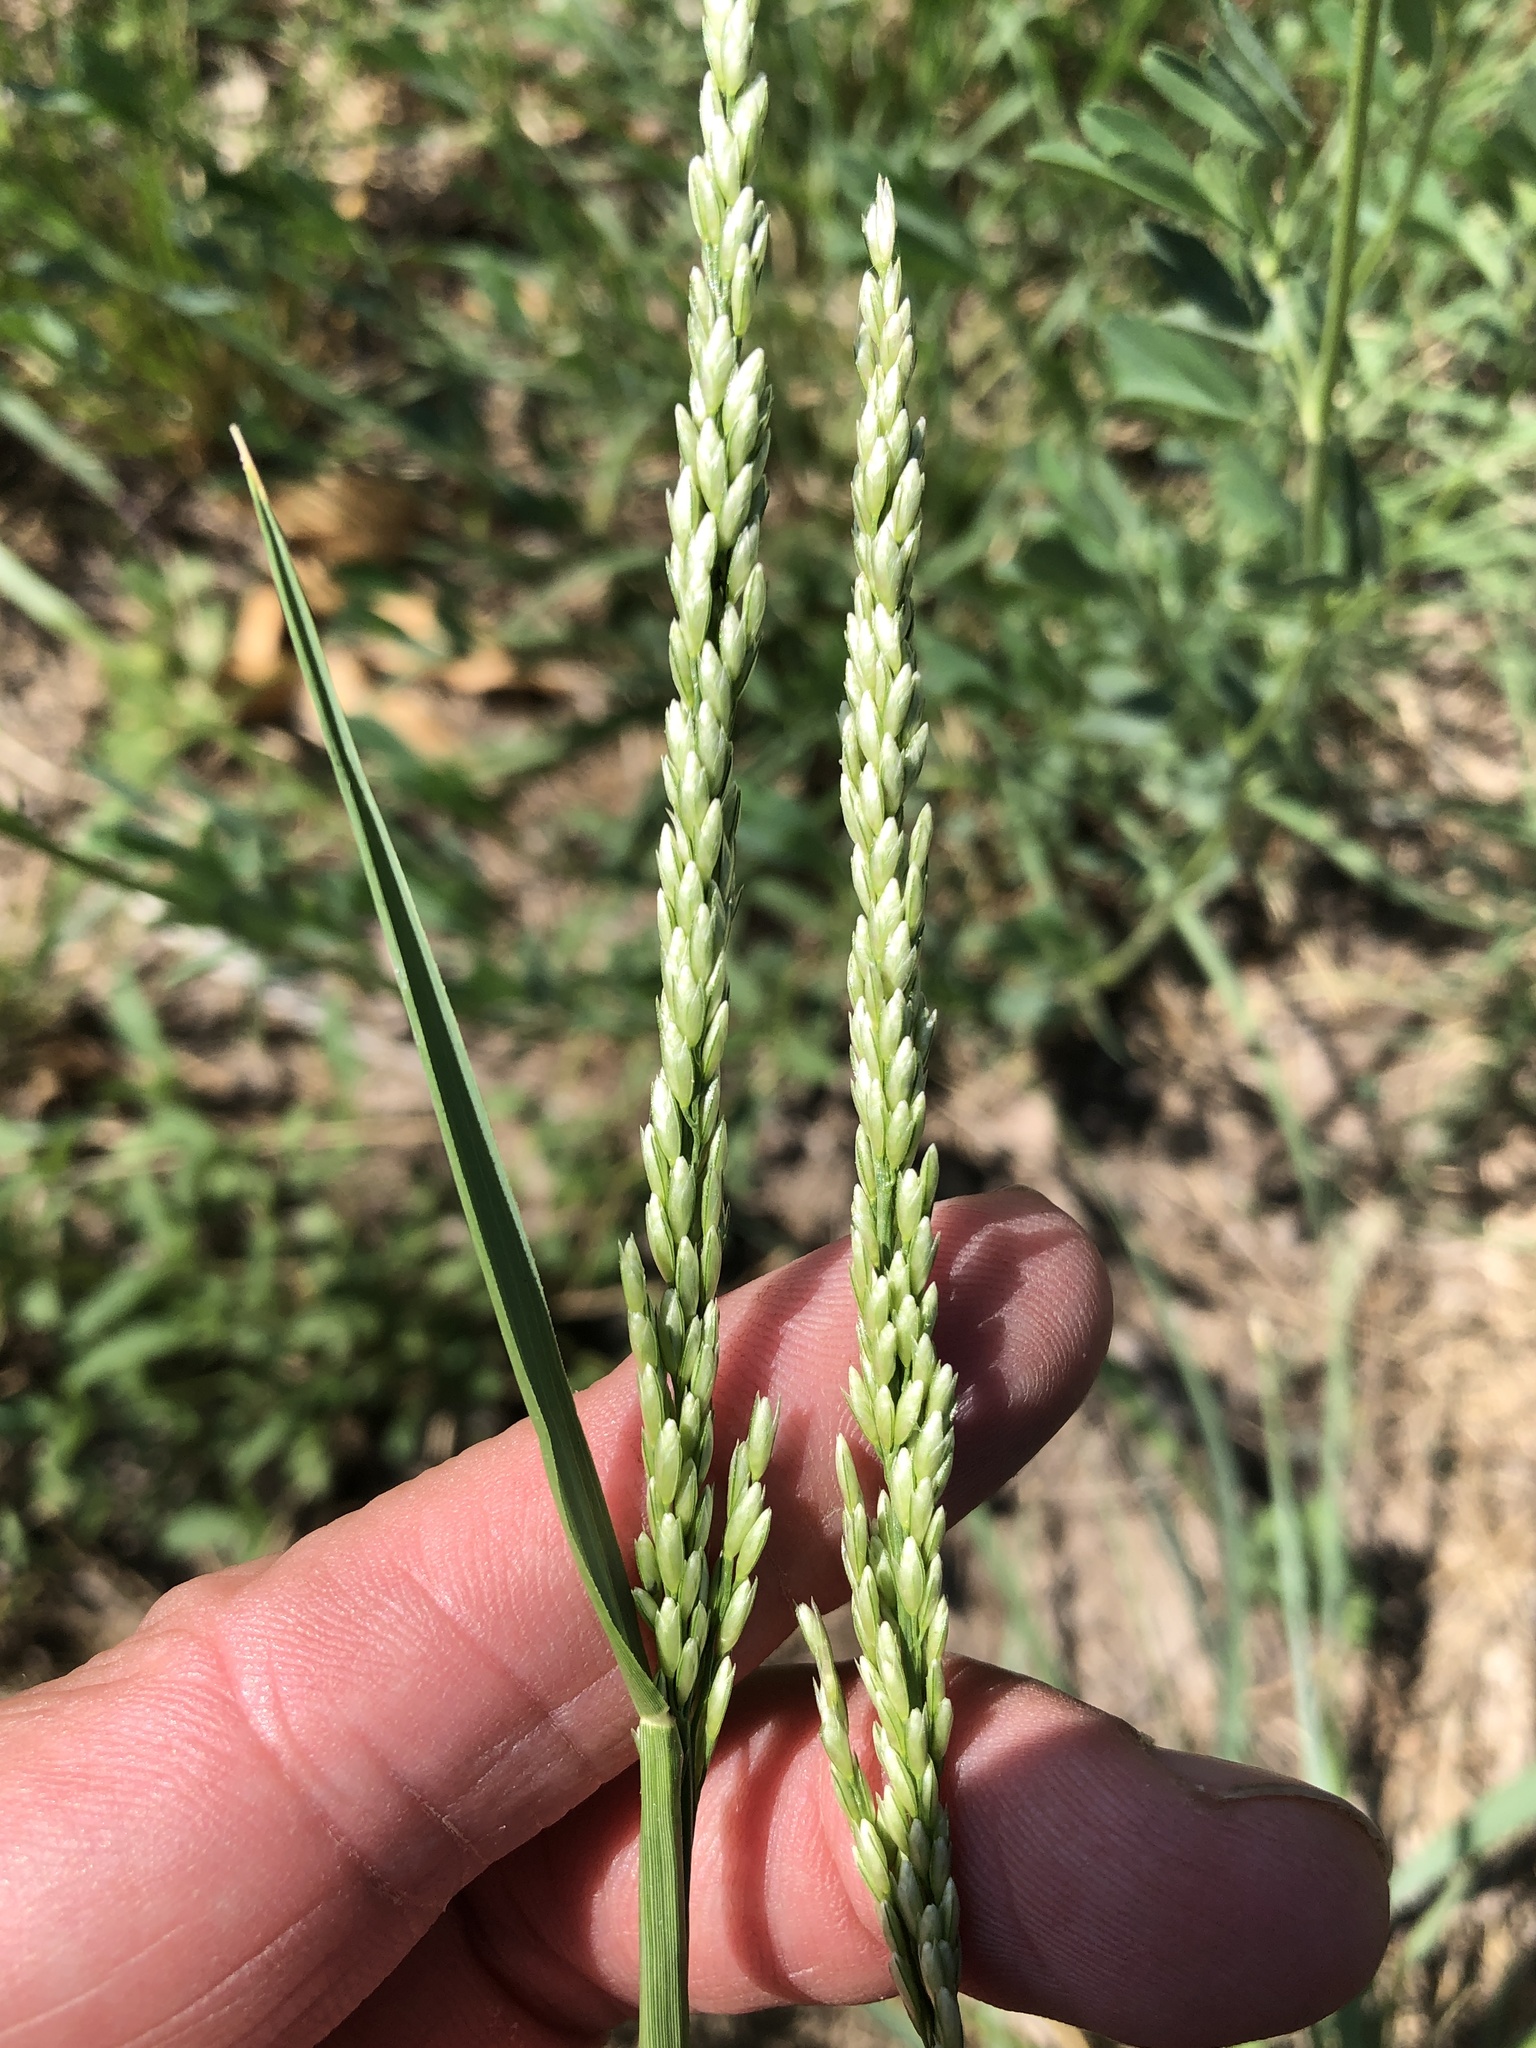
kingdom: Plantae
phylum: Tracheophyta
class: Liliopsida
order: Poales
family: Poaceae
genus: Tridens
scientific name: Tridens albescens
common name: White tridens
